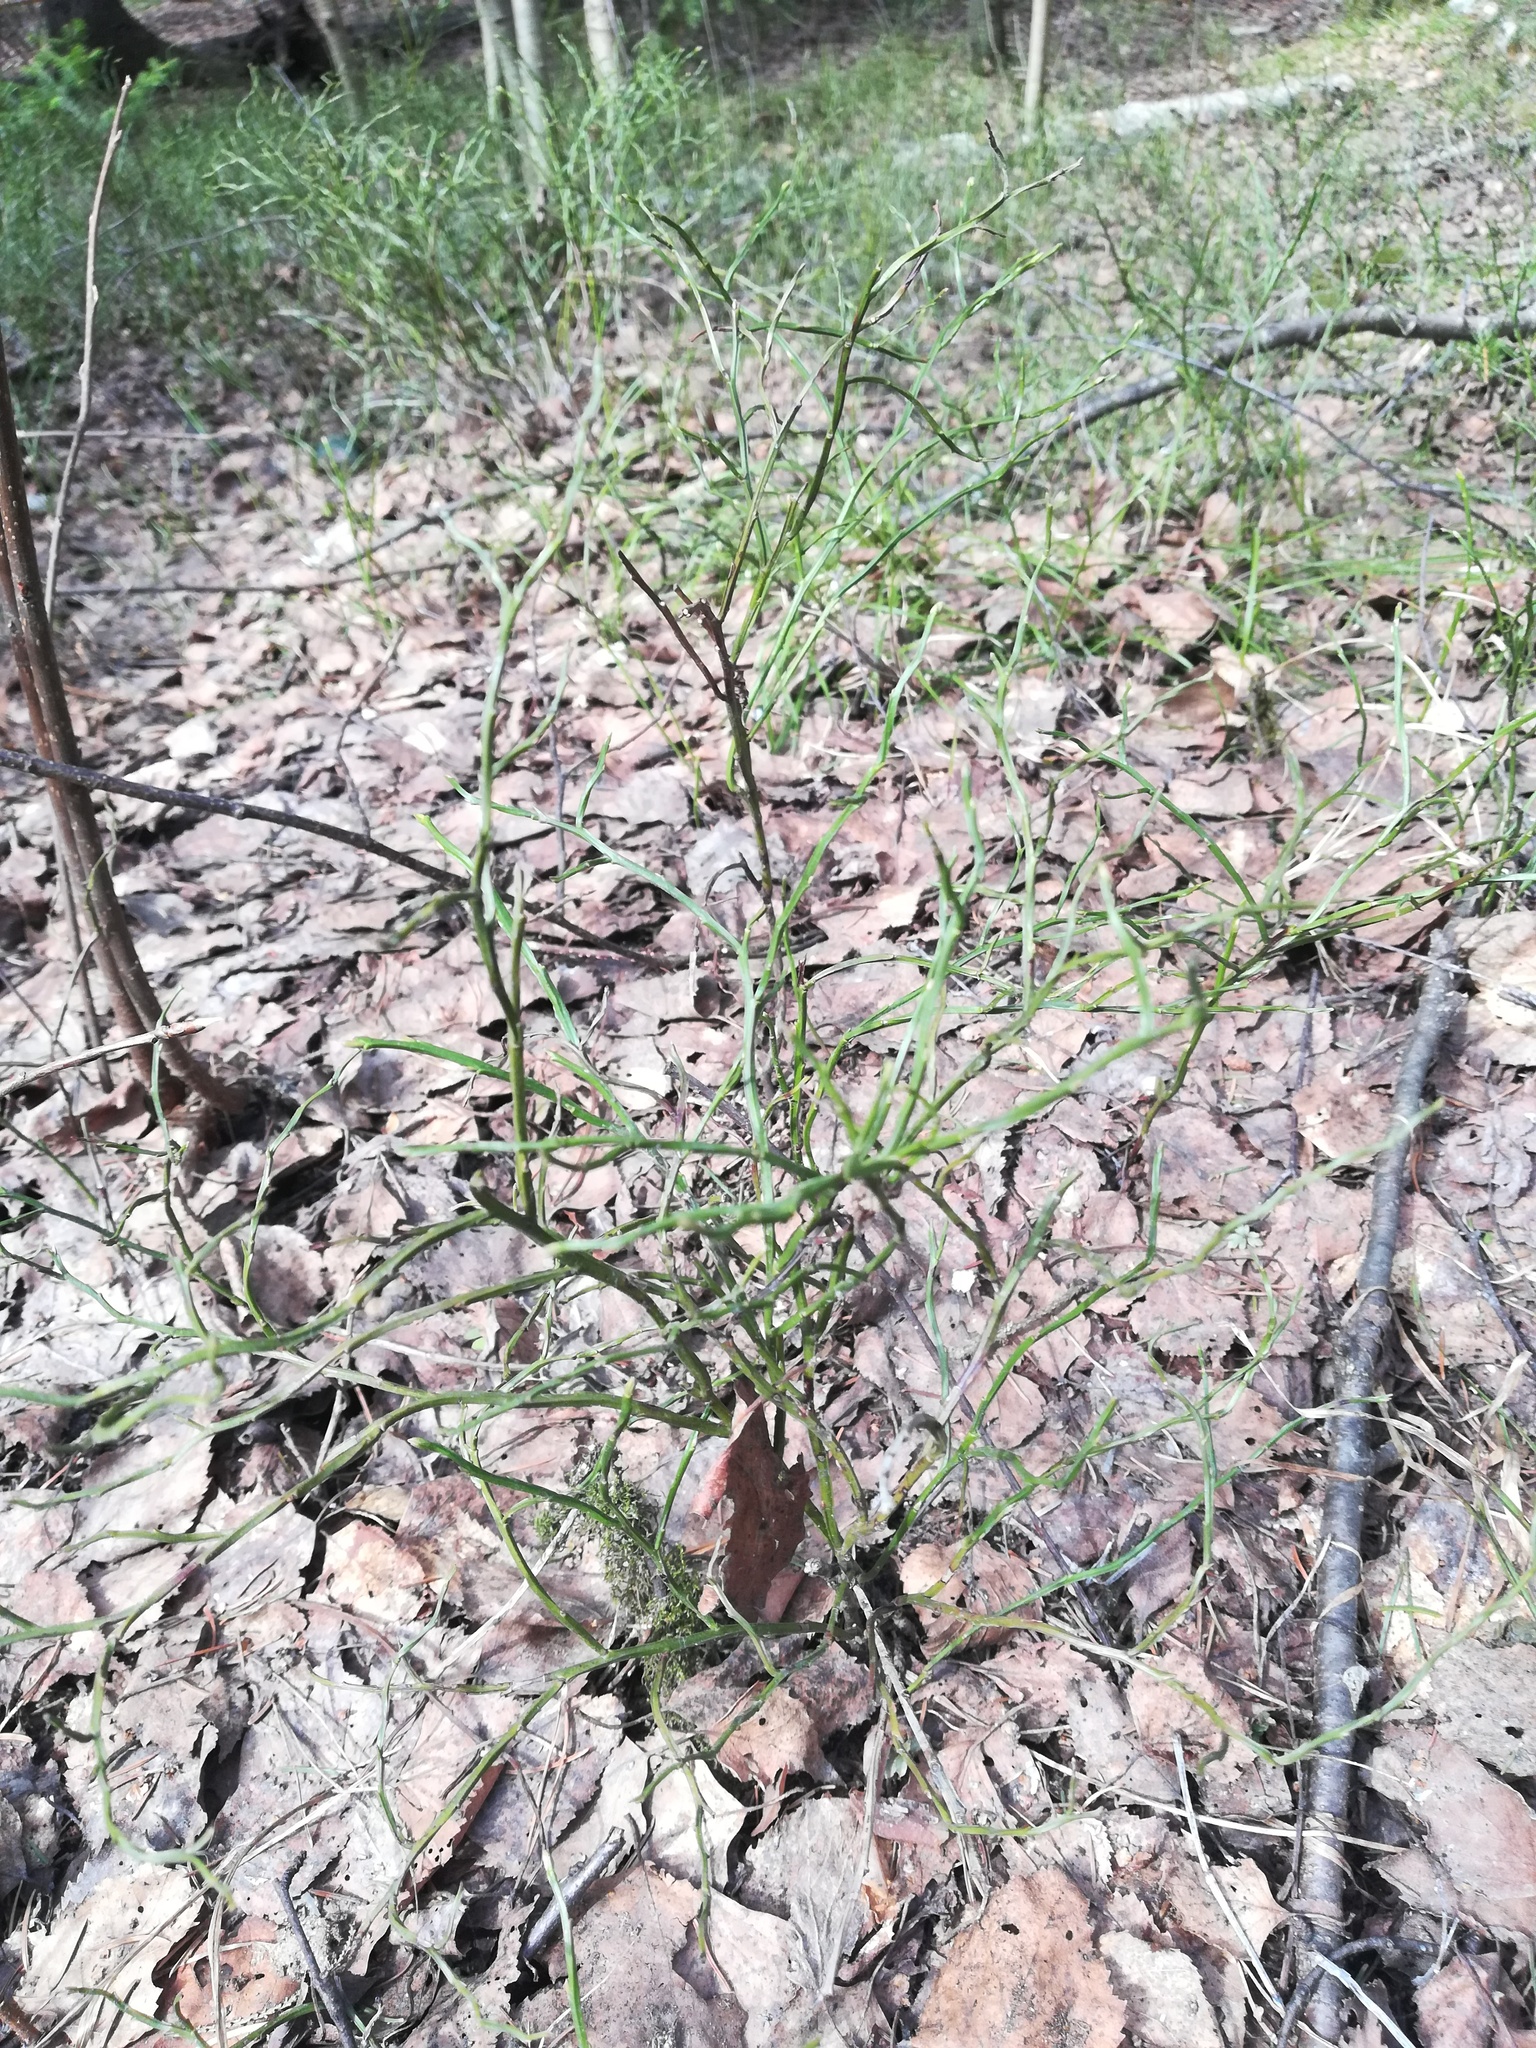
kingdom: Plantae
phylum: Tracheophyta
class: Magnoliopsida
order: Ericales
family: Ericaceae
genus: Vaccinium
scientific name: Vaccinium myrtillus
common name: Bilberry
